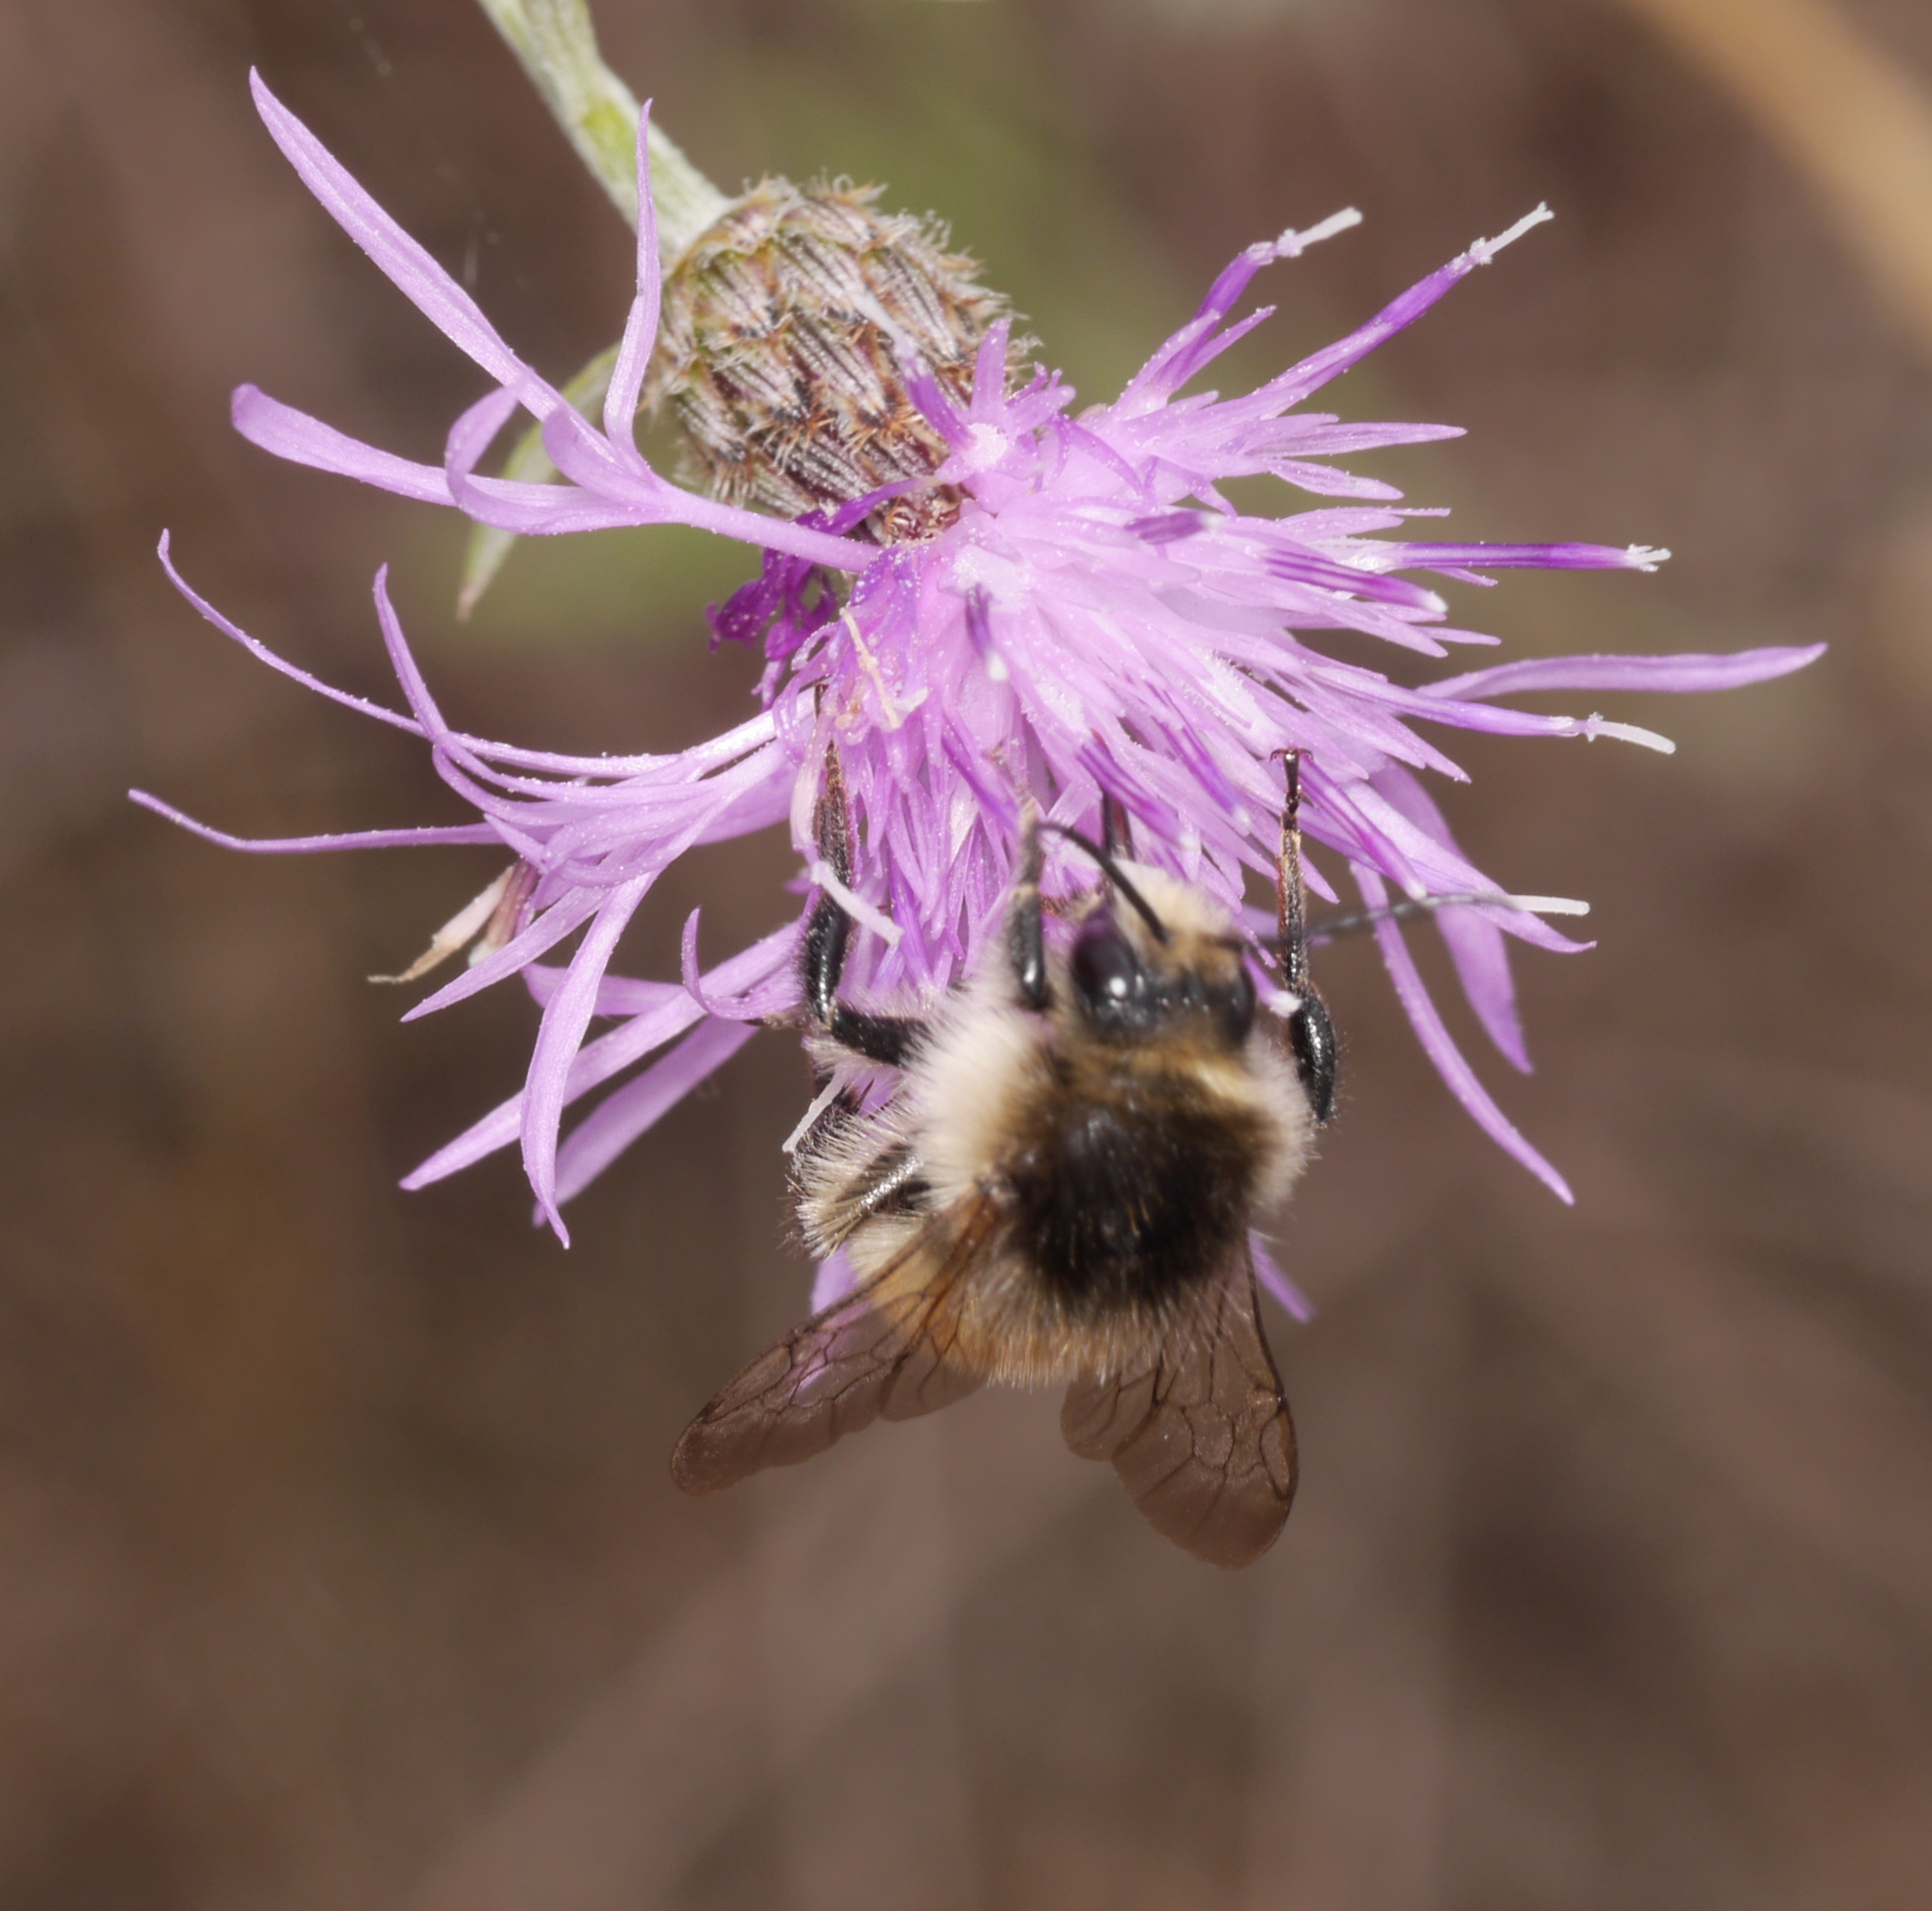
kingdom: Animalia
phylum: Arthropoda
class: Insecta
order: Hymenoptera
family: Apidae
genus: Bombus
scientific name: Bombus humilis
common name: Brown-banded carder-bee
